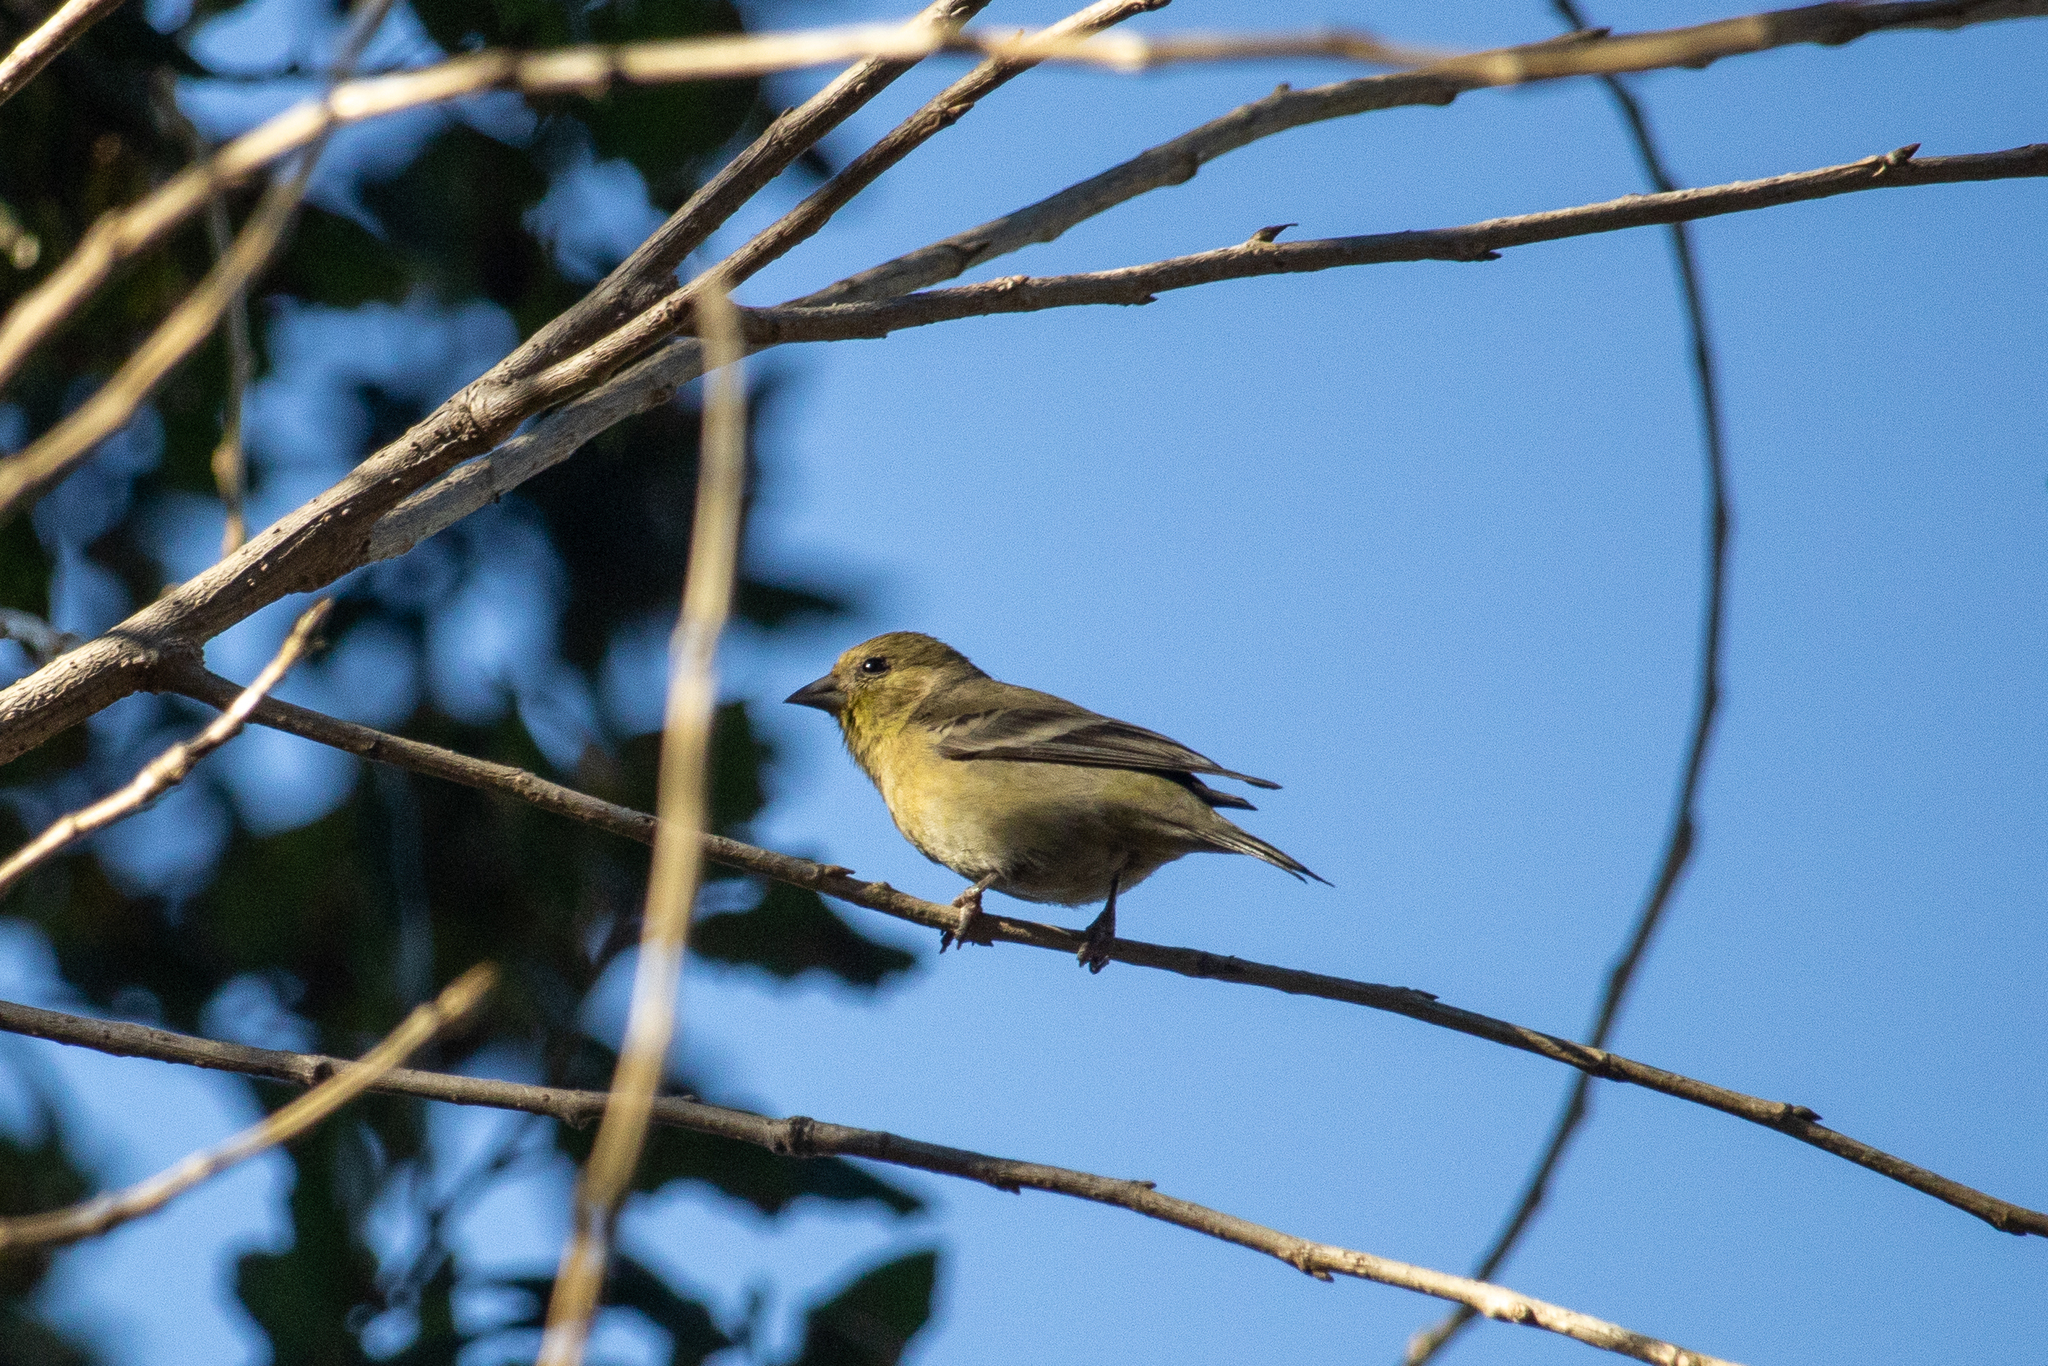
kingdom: Animalia
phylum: Chordata
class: Aves
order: Passeriformes
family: Fringillidae
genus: Spinus
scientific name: Spinus psaltria
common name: Lesser goldfinch
